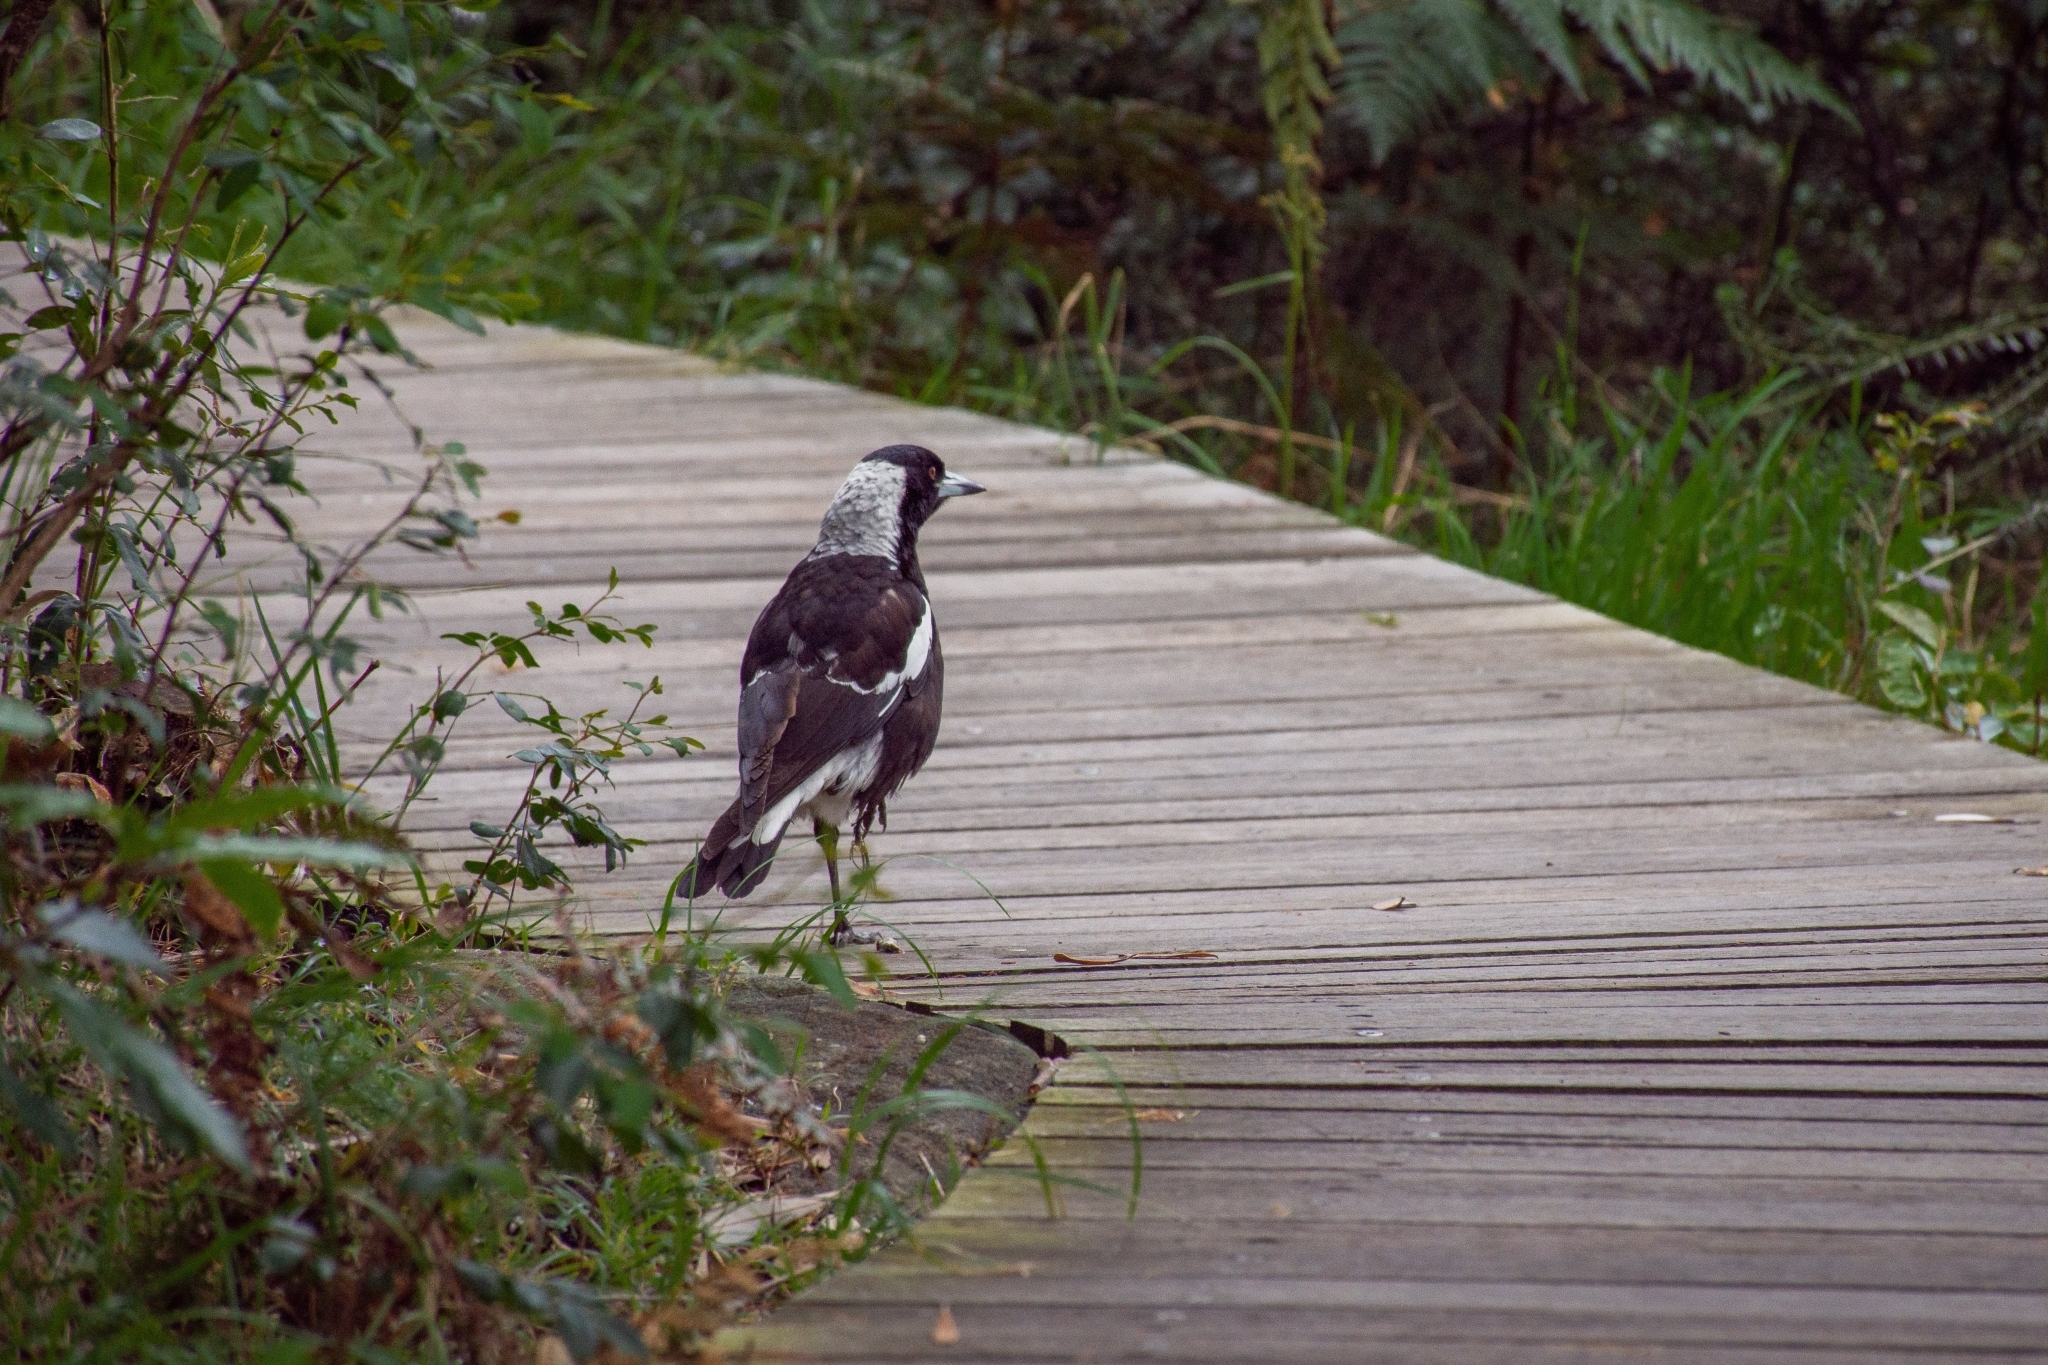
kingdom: Animalia
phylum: Chordata
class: Aves
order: Passeriformes
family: Cracticidae
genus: Gymnorhina
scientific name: Gymnorhina tibicen
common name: Australian magpie
